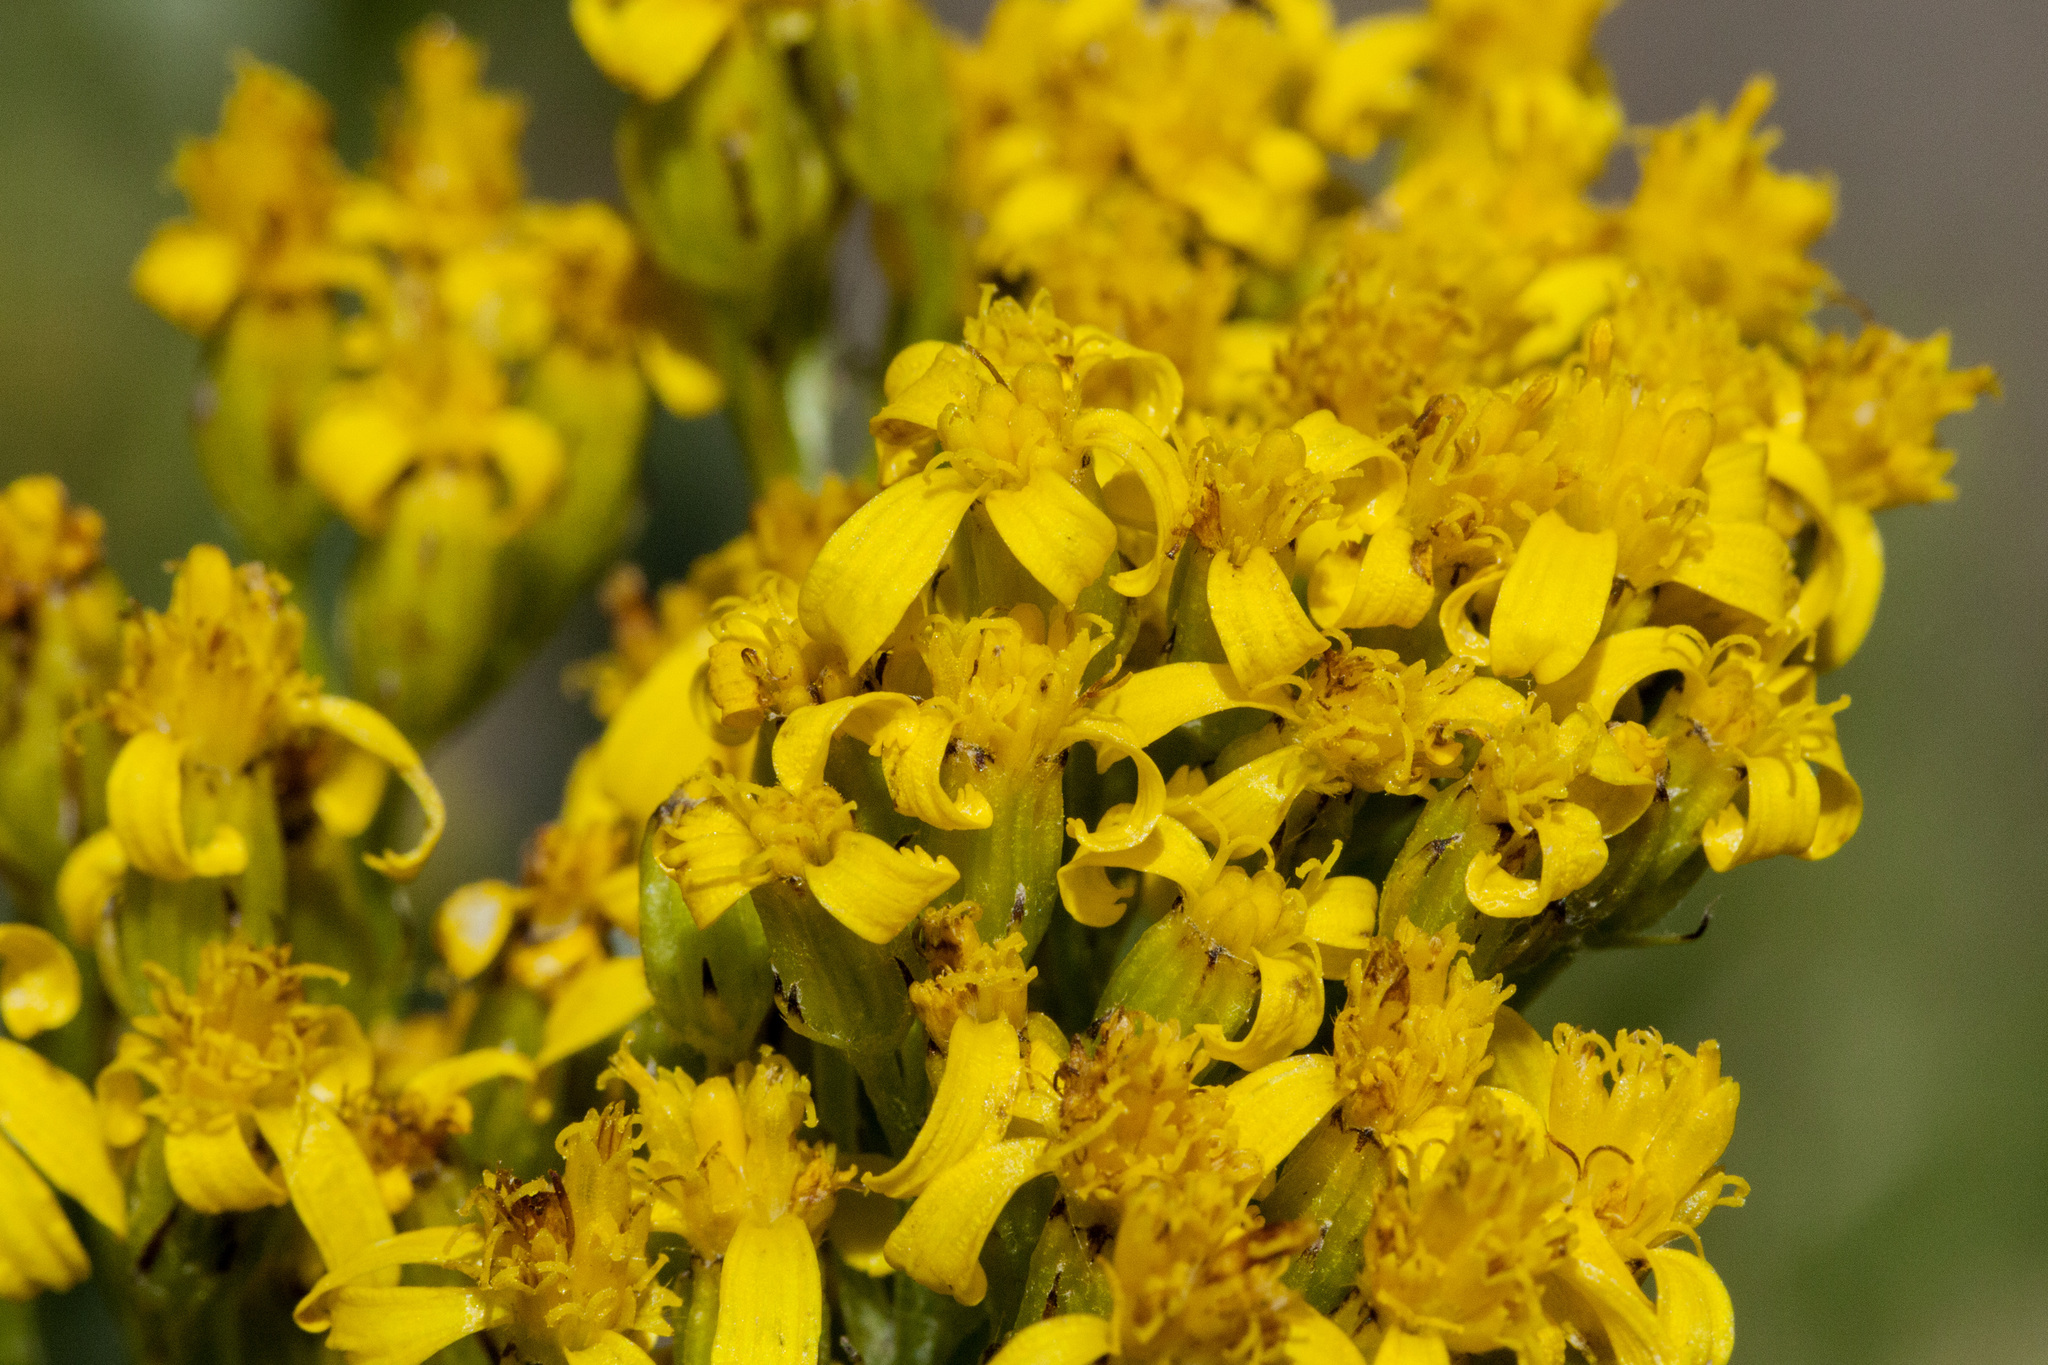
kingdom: Plantae
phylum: Tracheophyta
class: Magnoliopsida
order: Asterales
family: Asteraceae
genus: Senecio
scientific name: Senecio atratus
